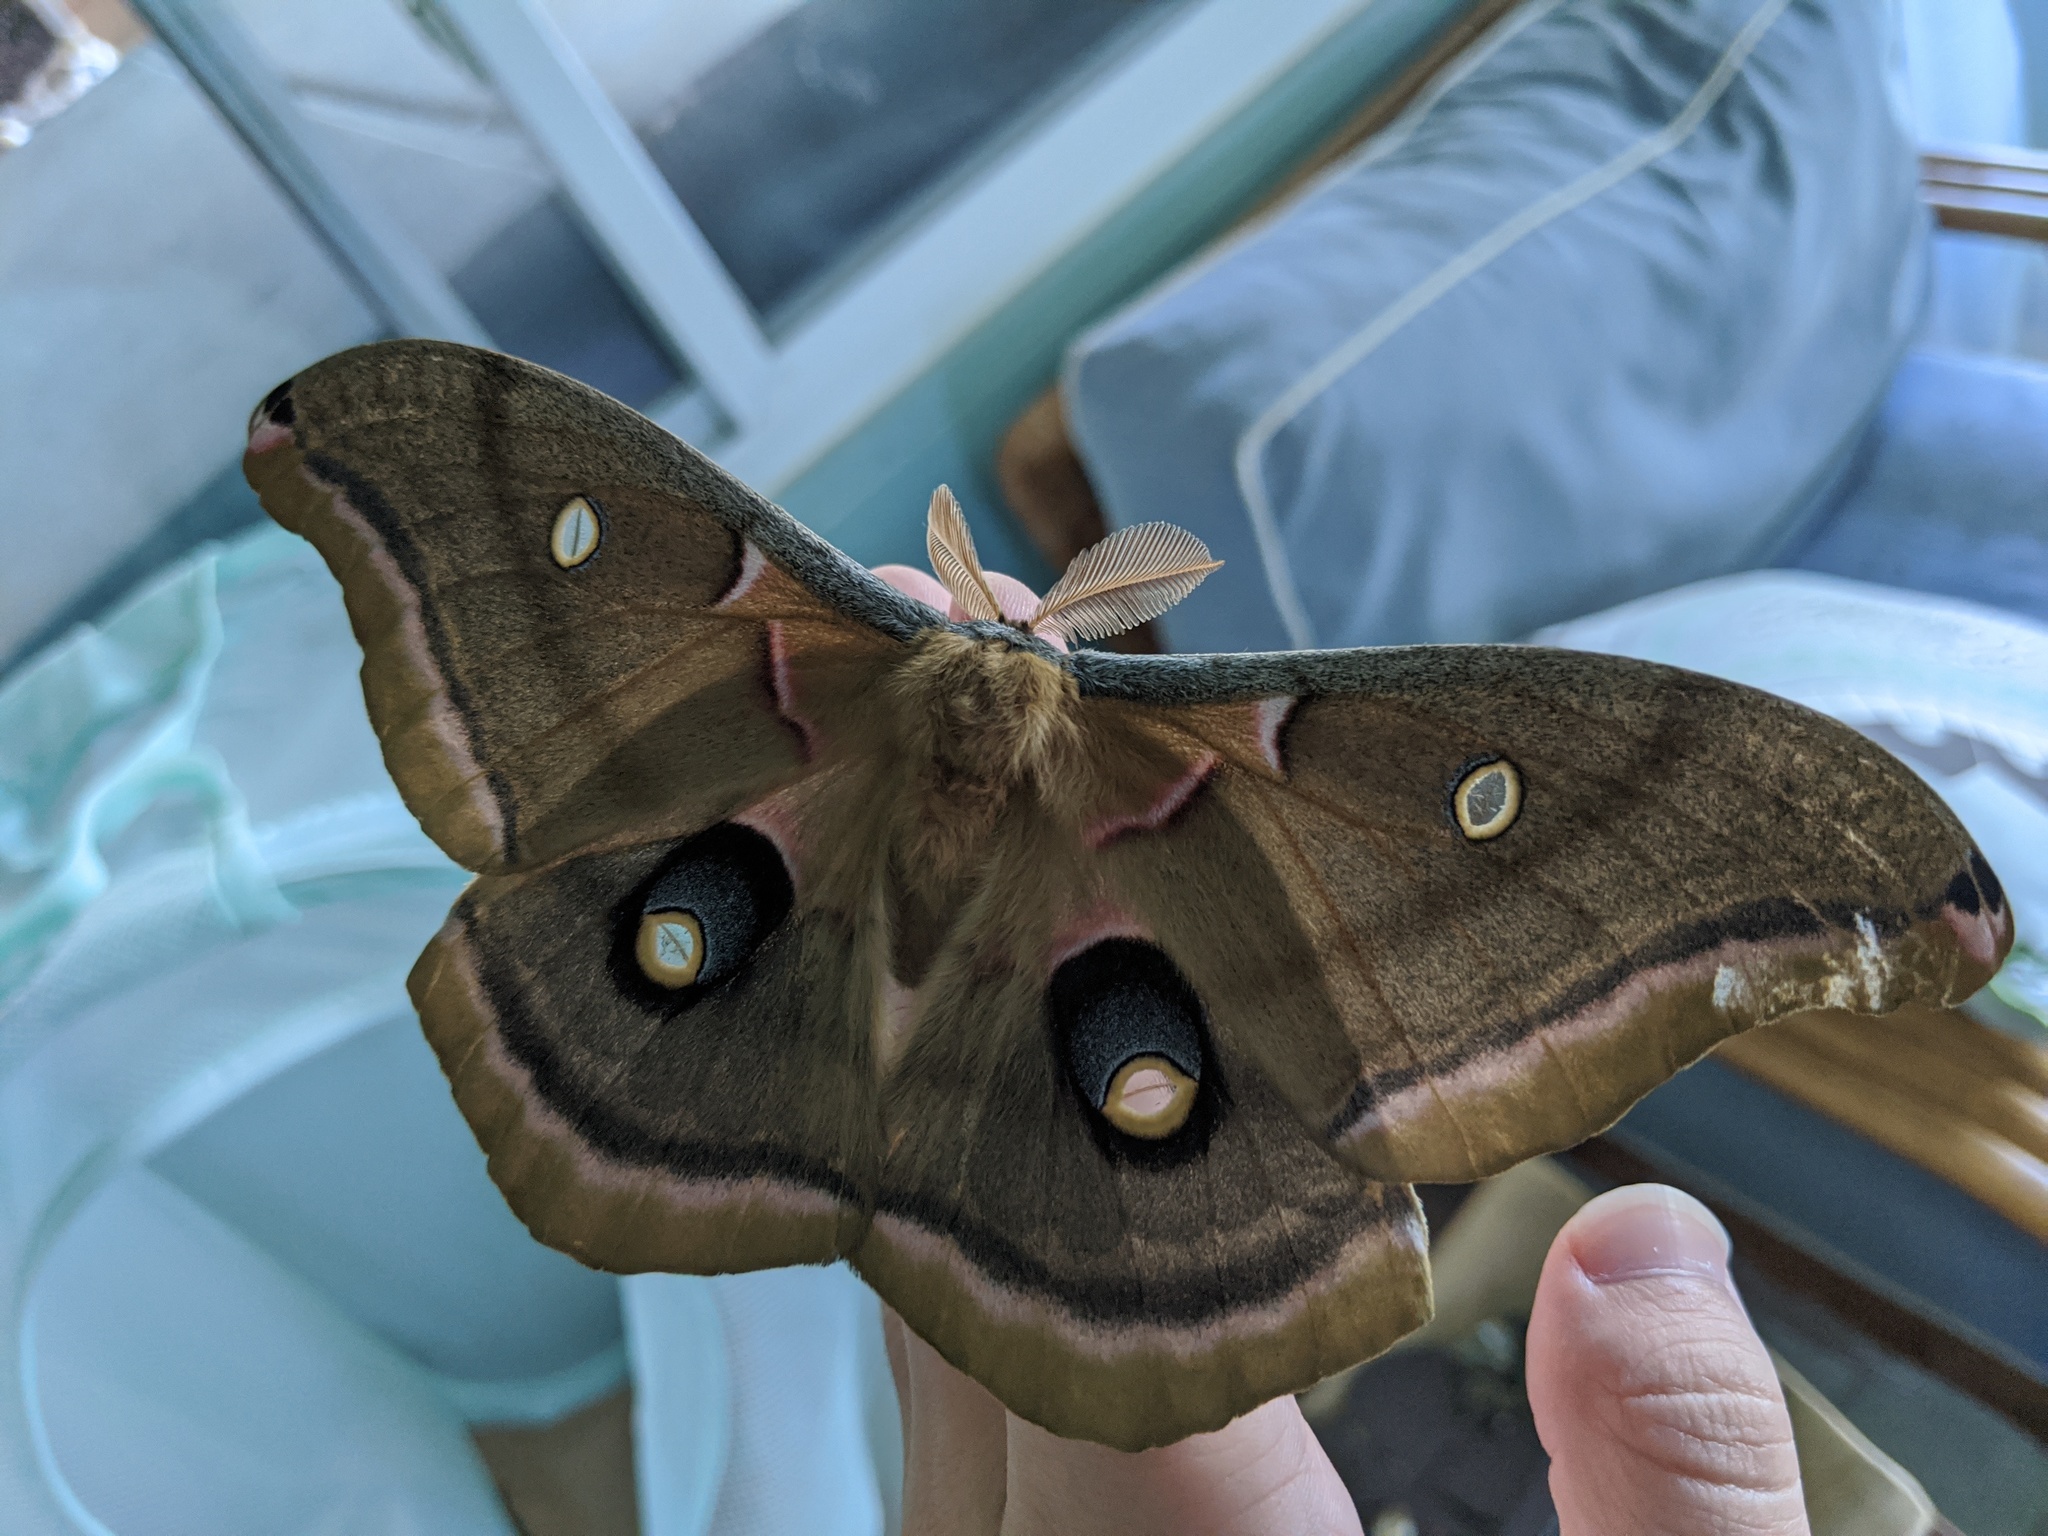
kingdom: Animalia
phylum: Arthropoda
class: Insecta
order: Lepidoptera
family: Saturniidae
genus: Antheraea
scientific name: Antheraea polyphemus
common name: Polyphemus moth
